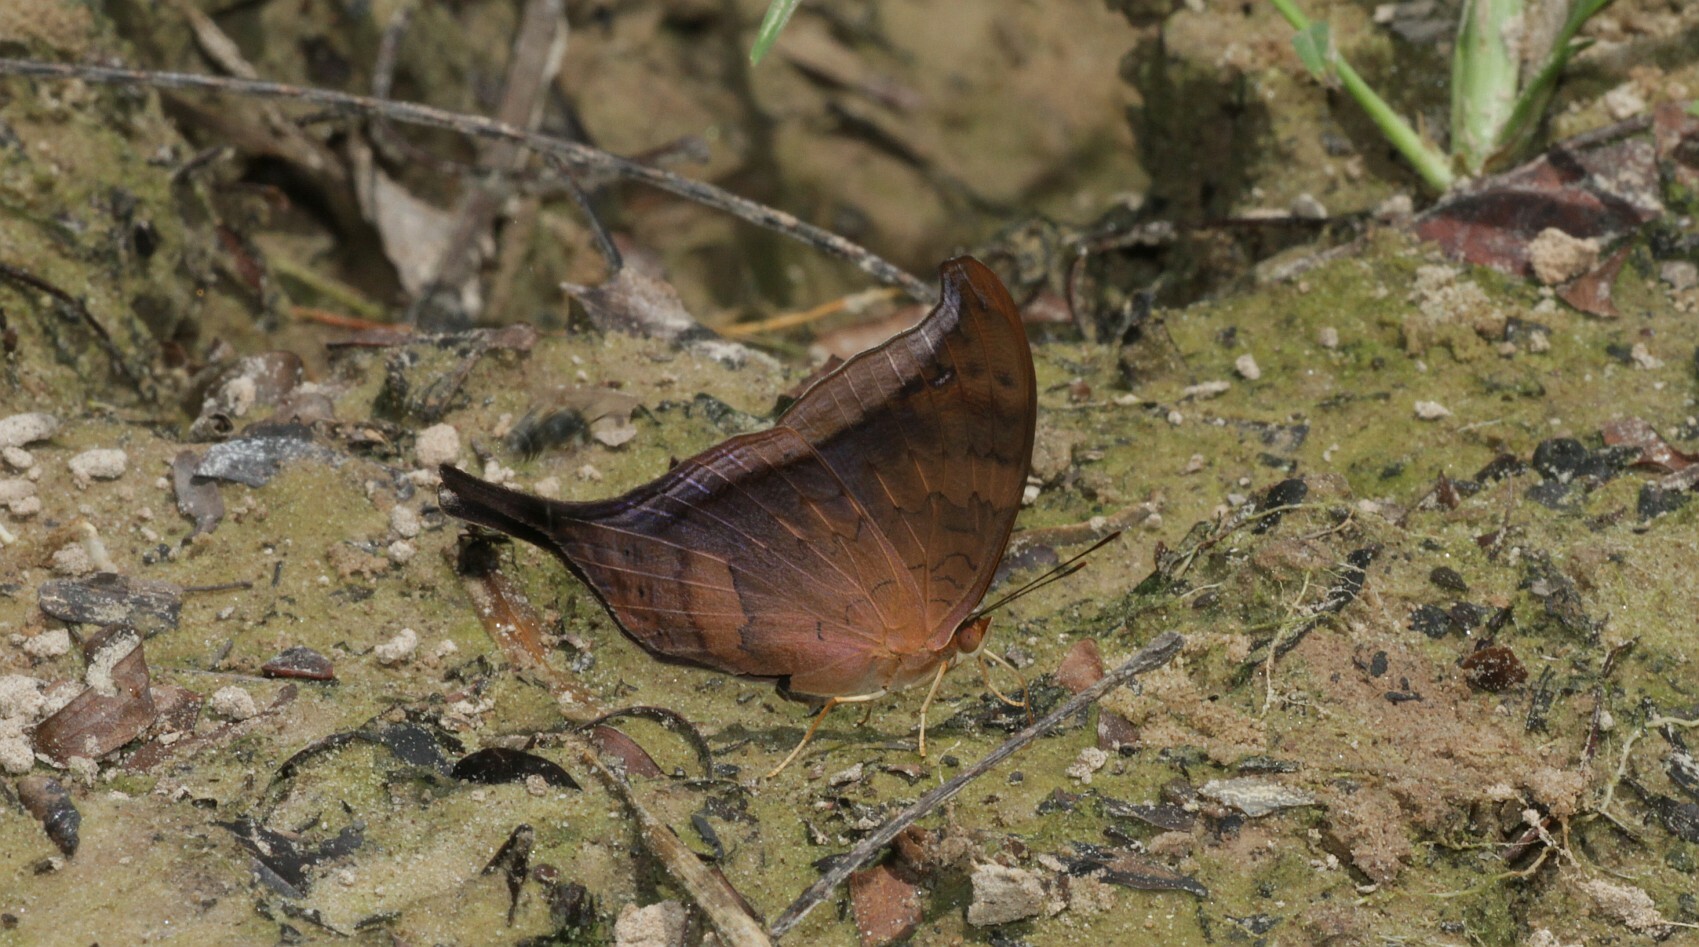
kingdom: Animalia
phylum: Arthropoda
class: Insecta
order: Lepidoptera
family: Nymphalidae
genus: Marpesia
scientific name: Marpesia themistocles
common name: Norica daggerwing
